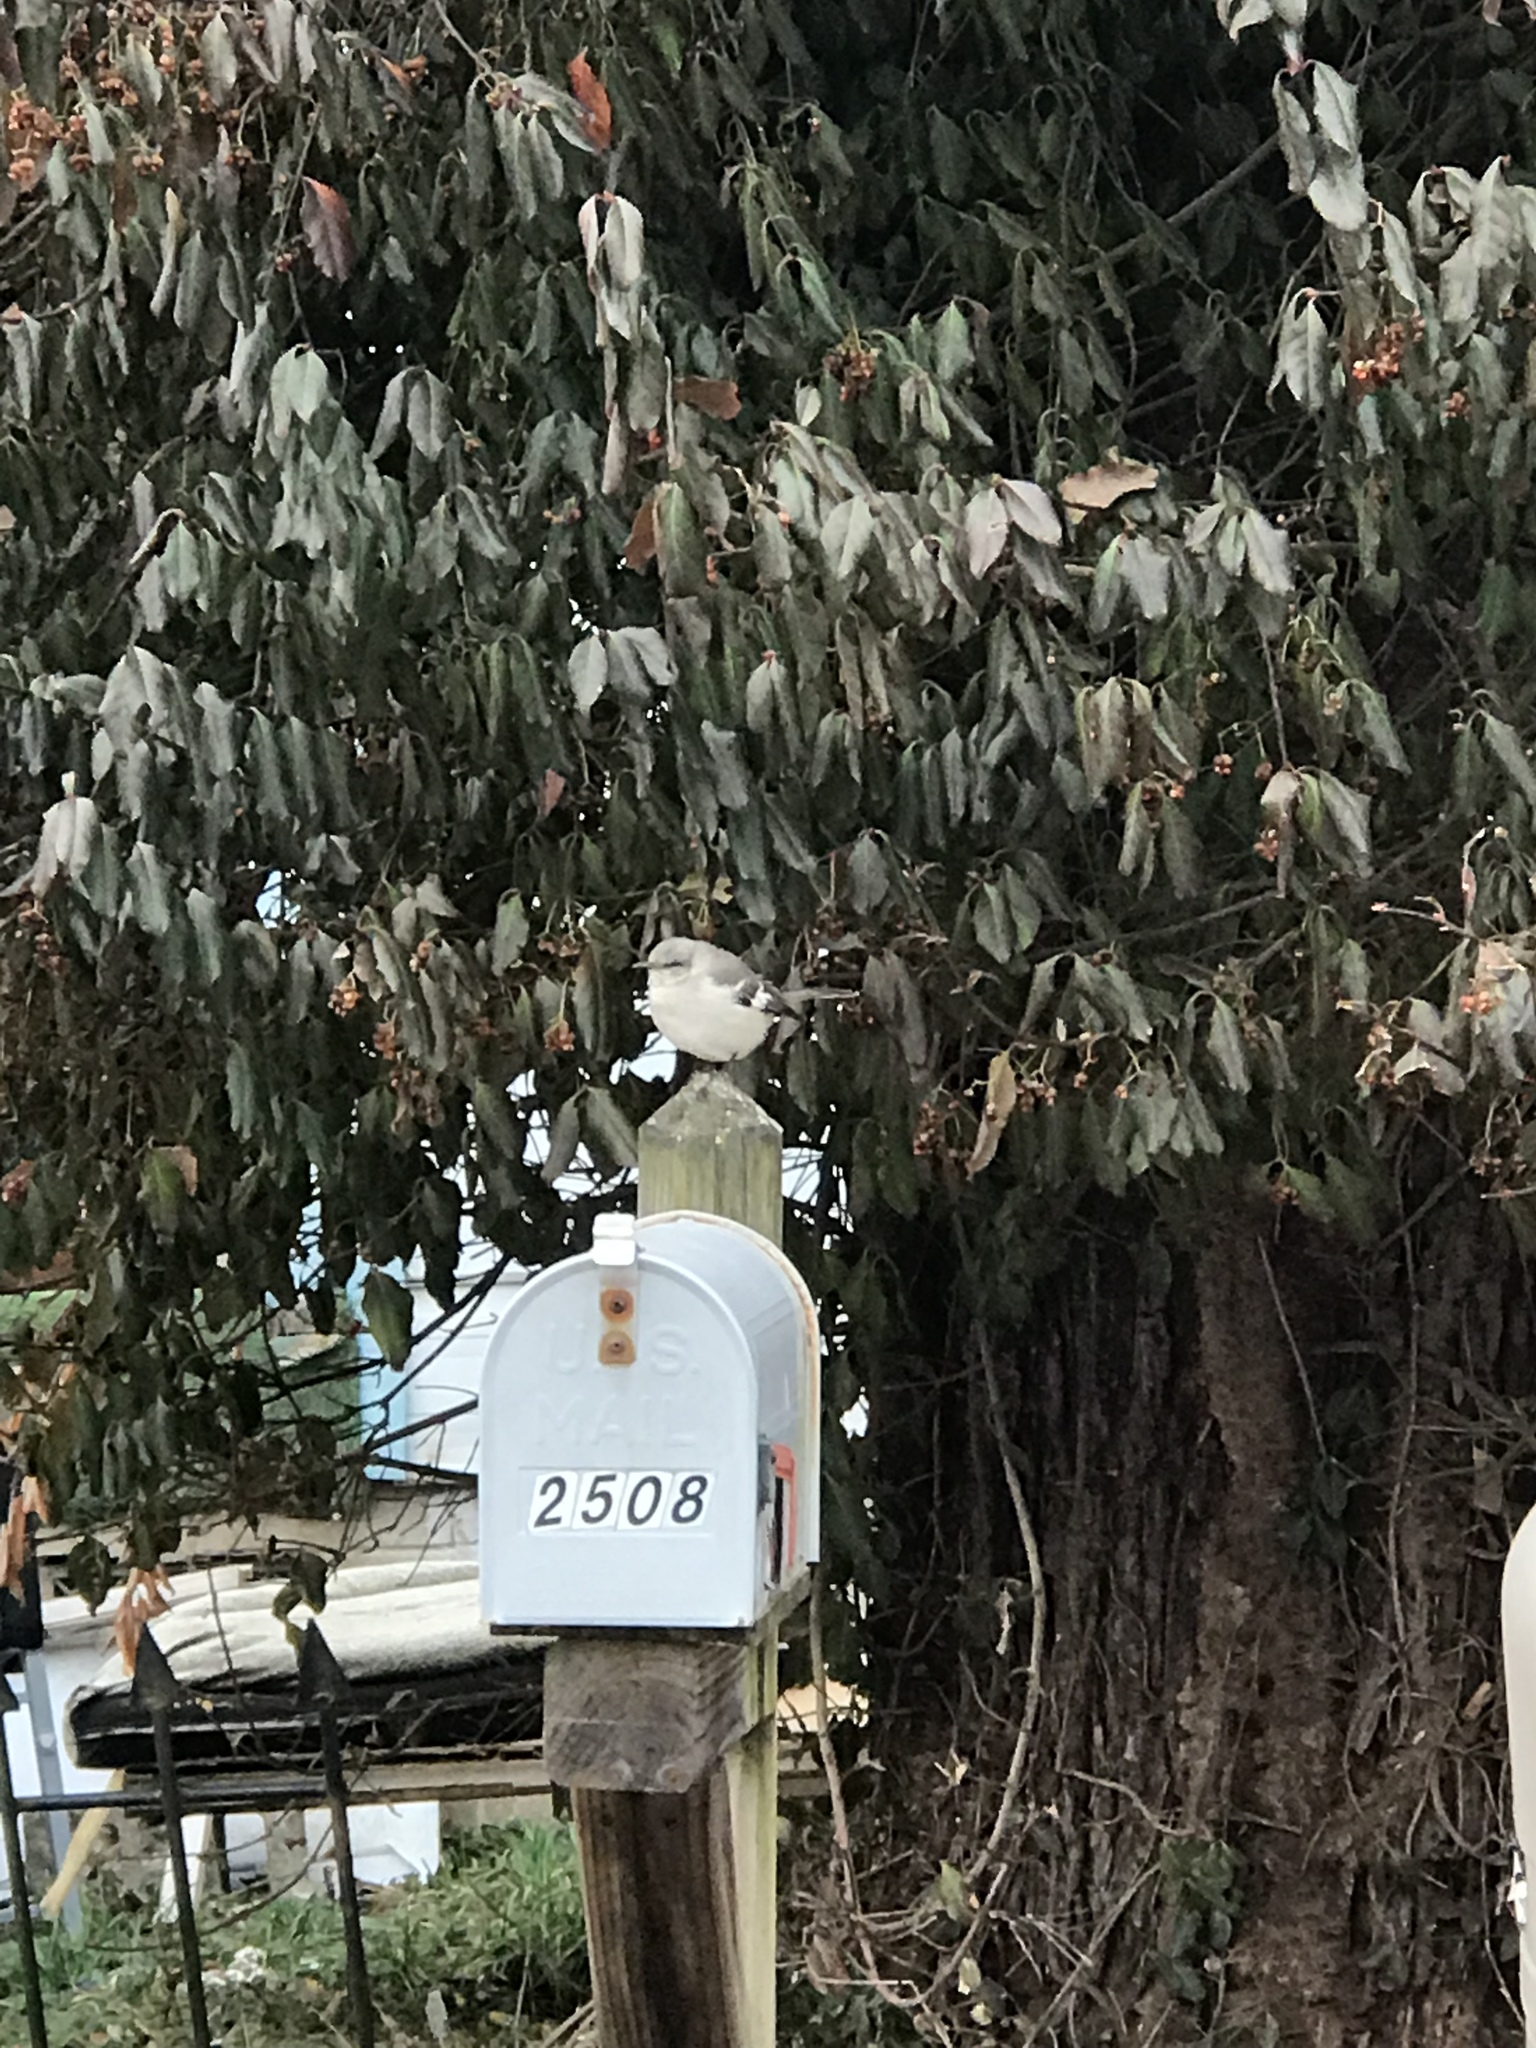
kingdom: Animalia
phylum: Chordata
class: Aves
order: Passeriformes
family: Mimidae
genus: Mimus
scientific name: Mimus polyglottos
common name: Northern mockingbird
